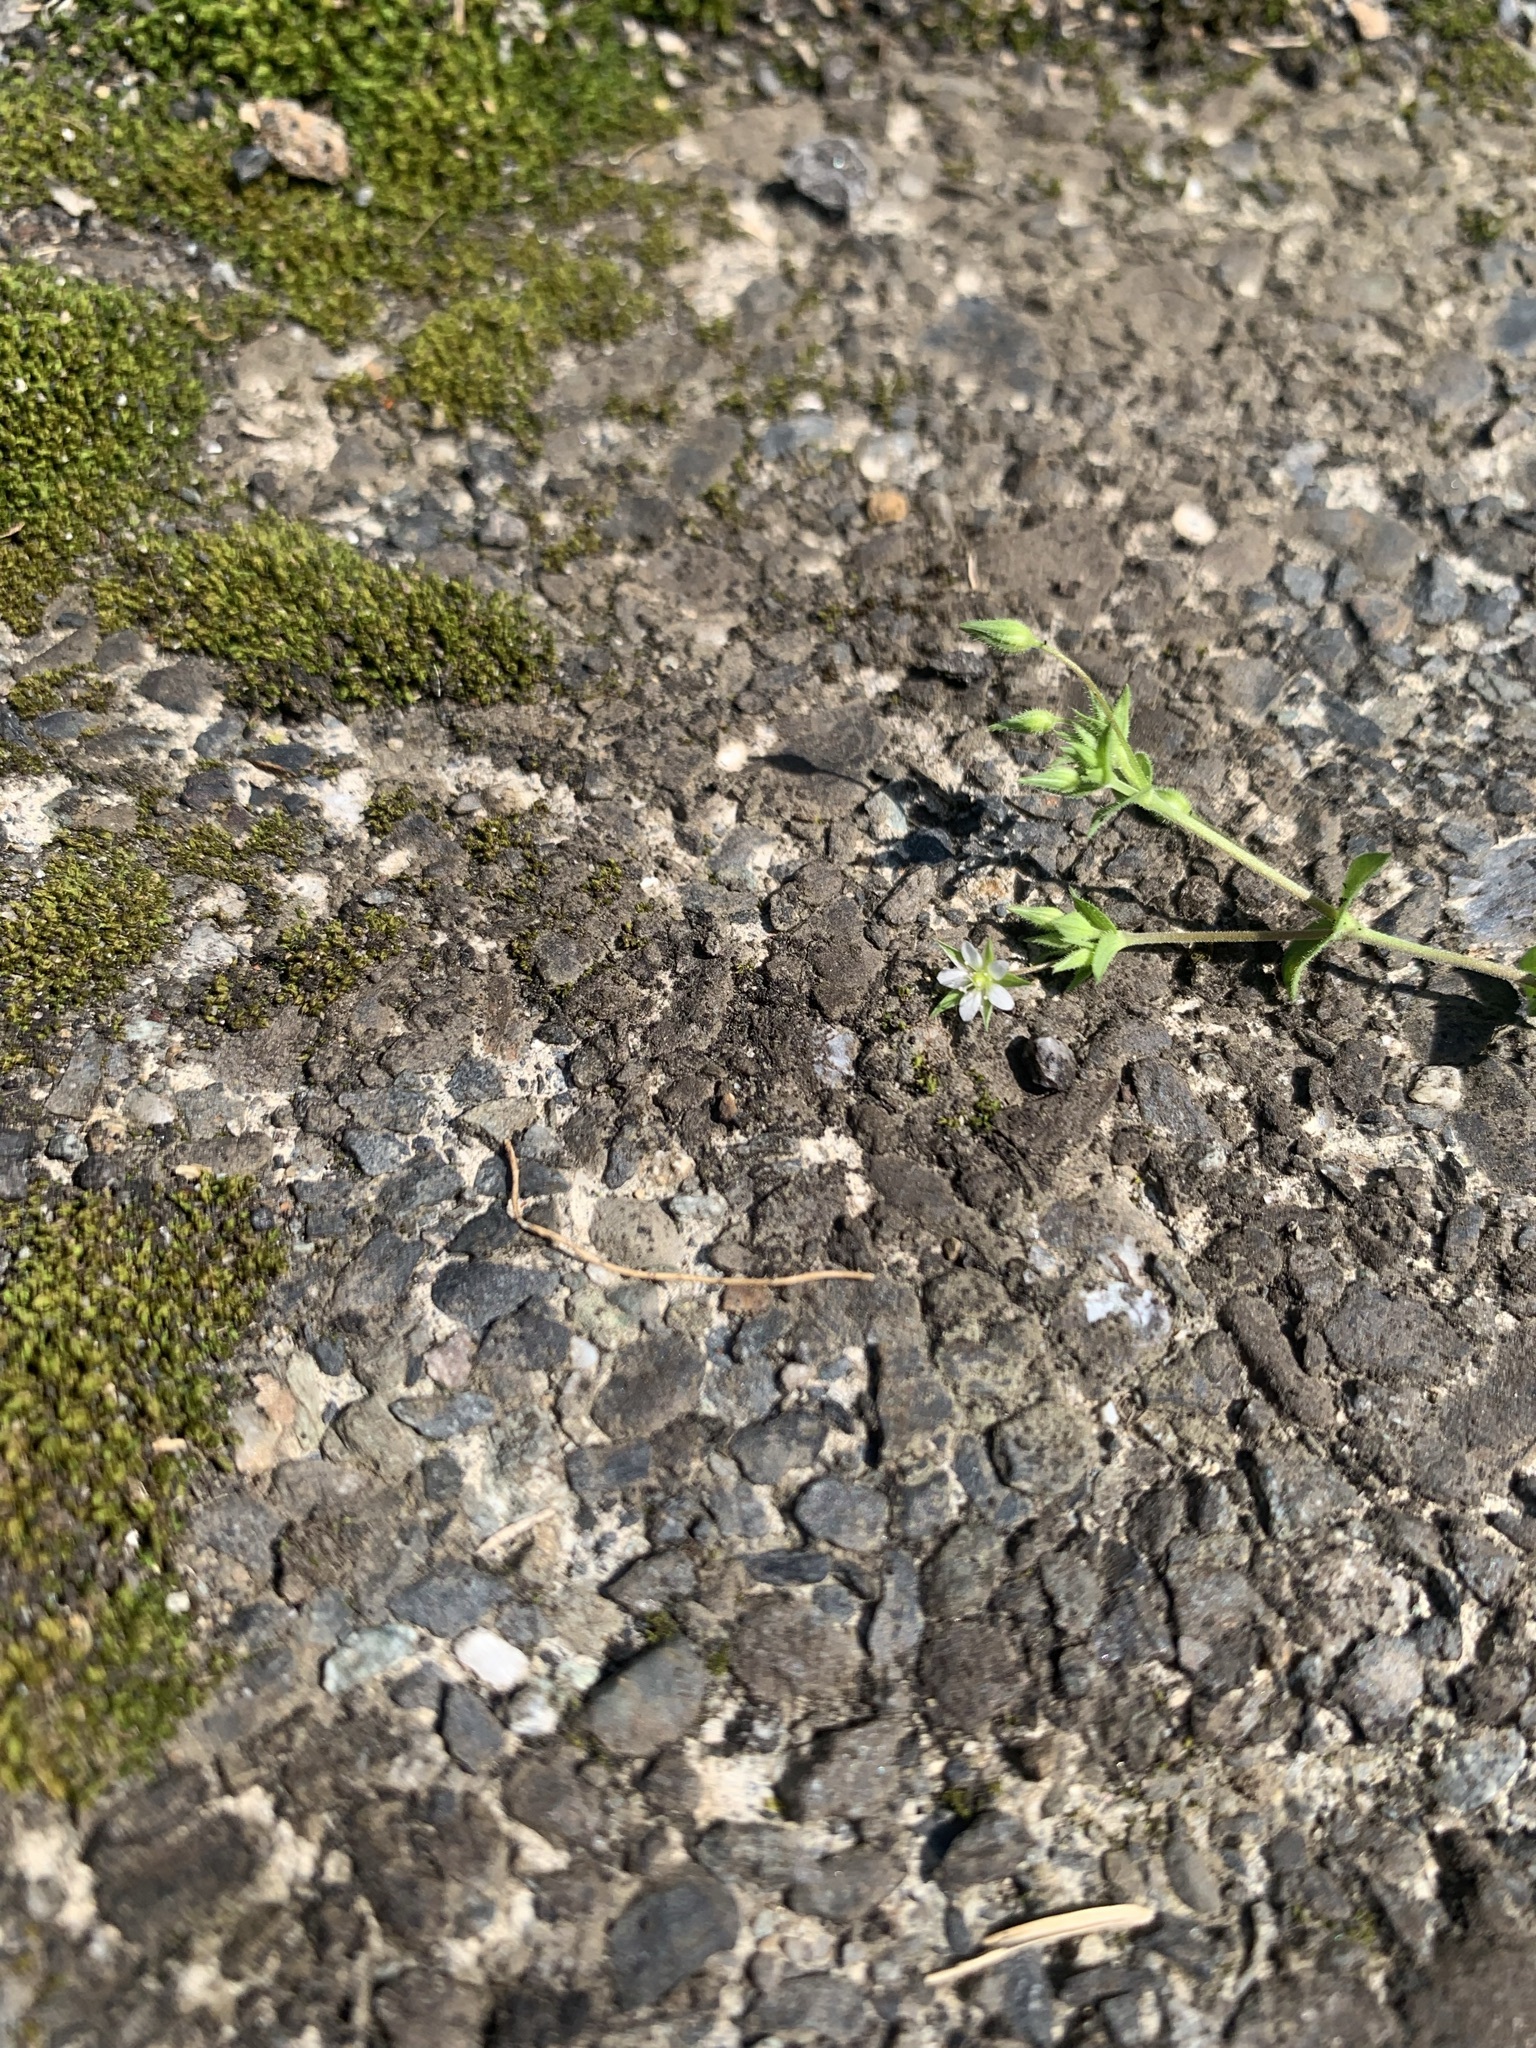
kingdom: Plantae
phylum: Tracheophyta
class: Magnoliopsida
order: Caryophyllales
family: Caryophyllaceae
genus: Arenaria
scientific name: Arenaria serpyllifolia
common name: Thyme-leaved sandwort
